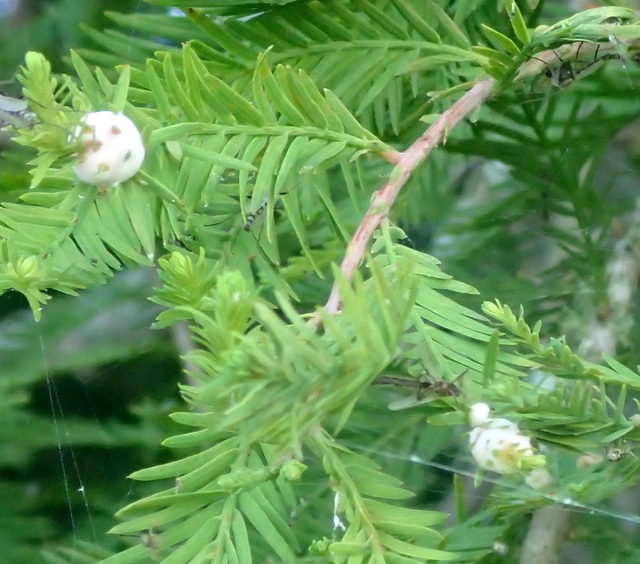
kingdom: Animalia
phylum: Arthropoda
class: Insecta
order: Diptera
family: Cecidomyiidae
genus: Taxodiomyia
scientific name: Taxodiomyia cupressiananassa
